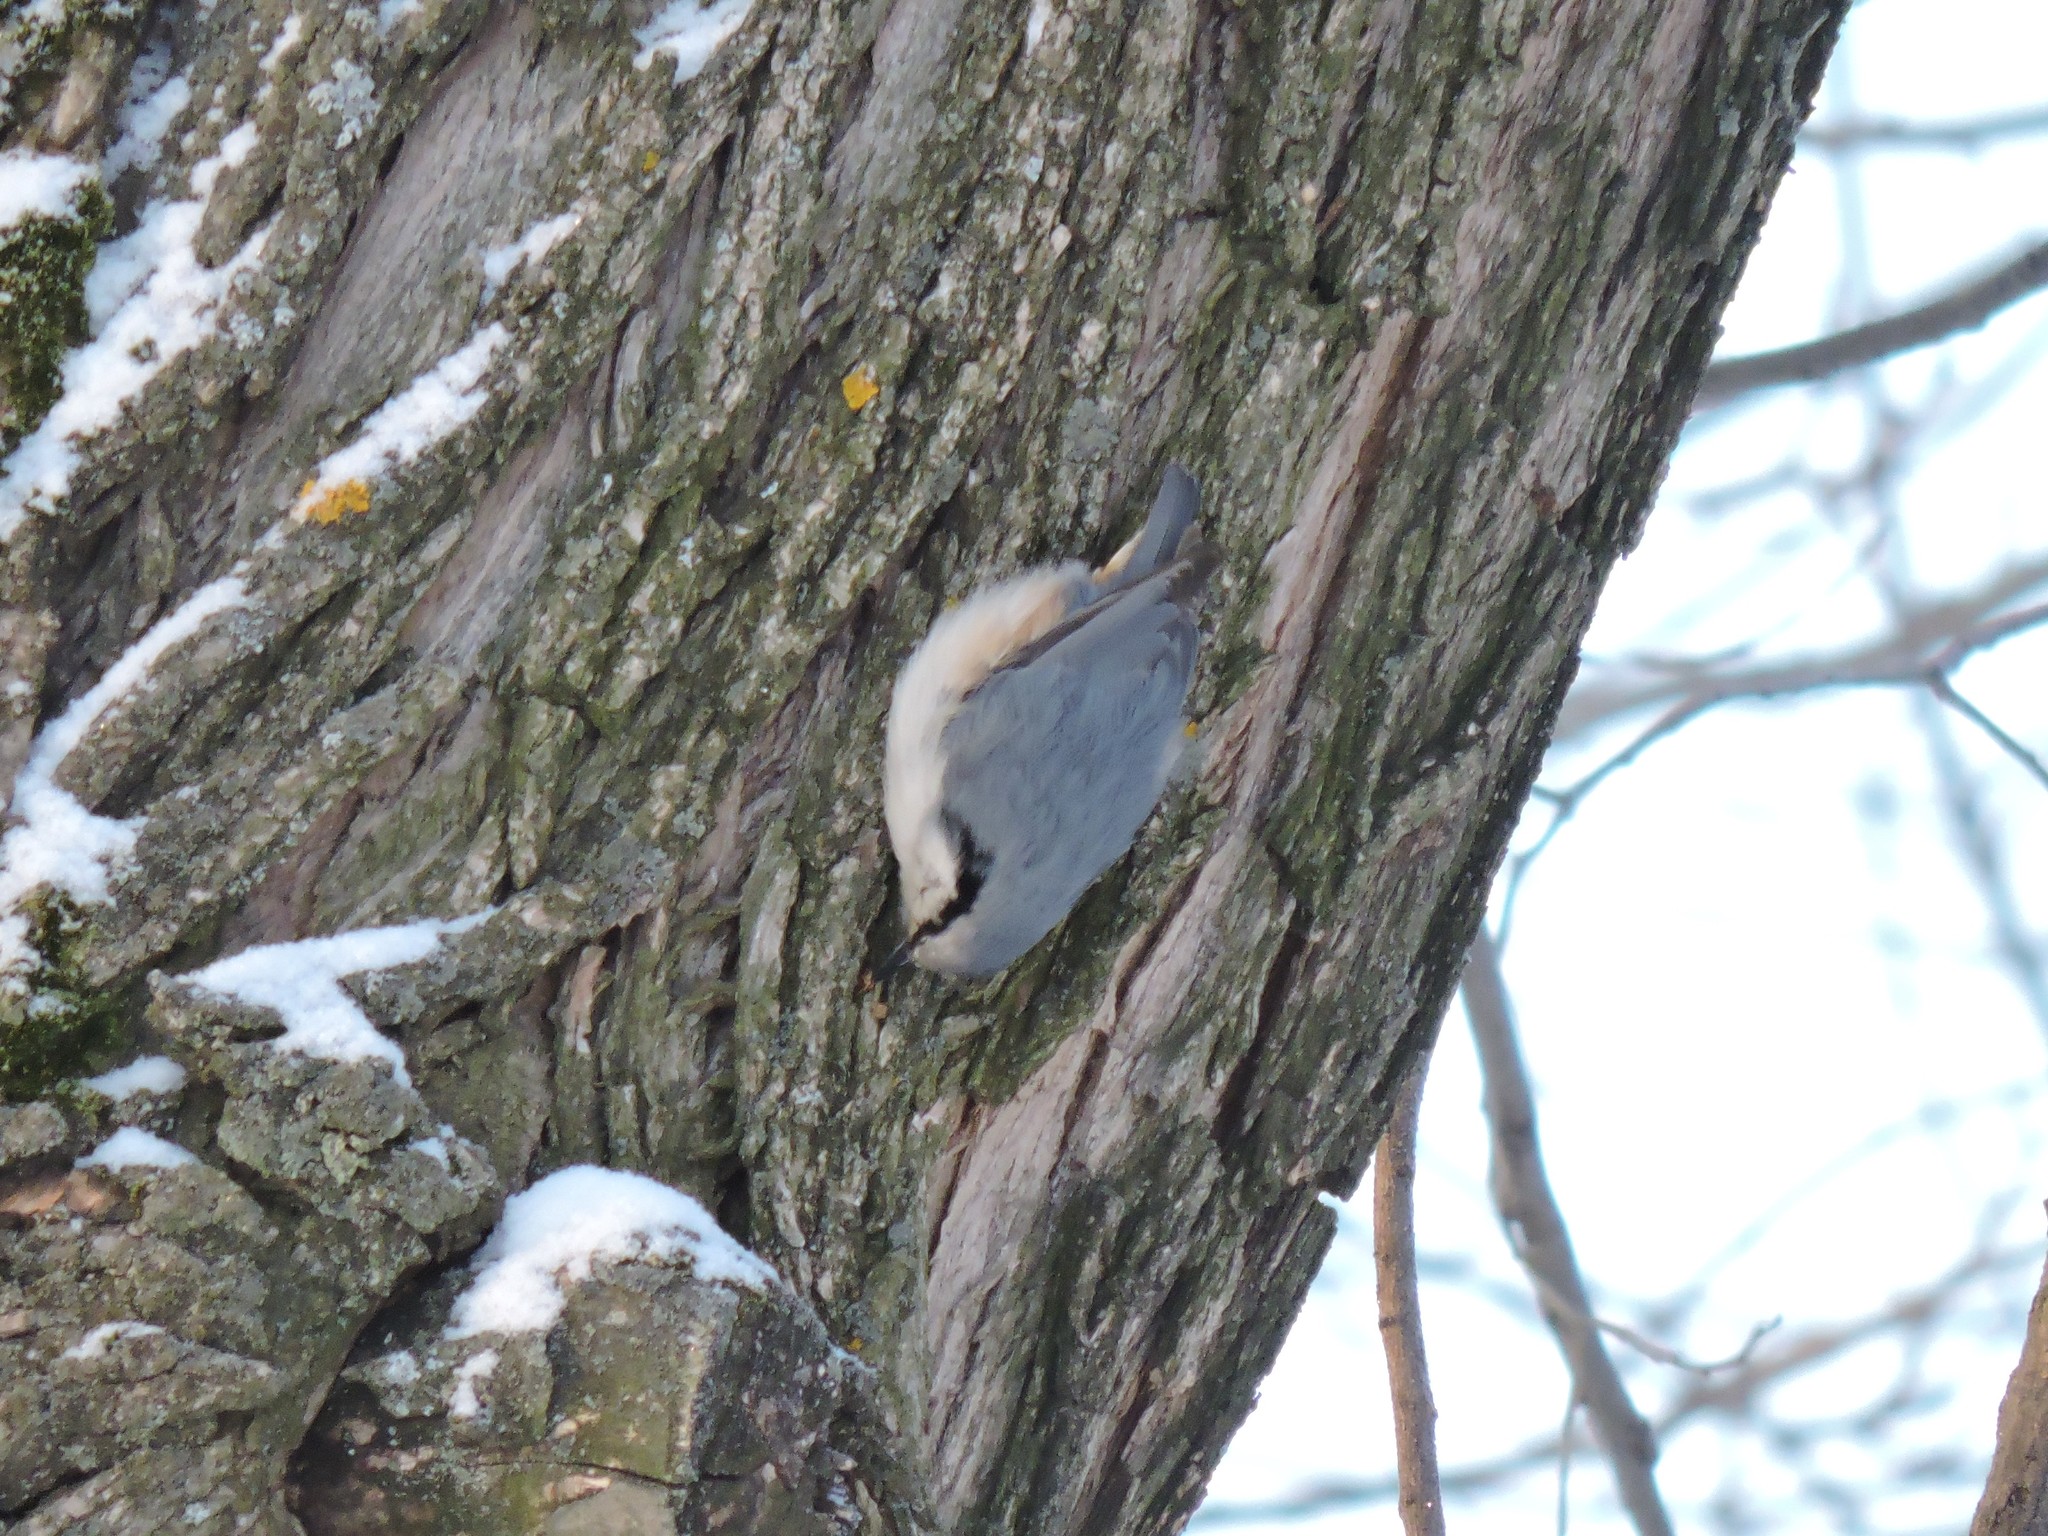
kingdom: Animalia
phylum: Chordata
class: Aves
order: Passeriformes
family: Sittidae
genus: Sitta
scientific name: Sitta europaea
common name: Eurasian nuthatch
